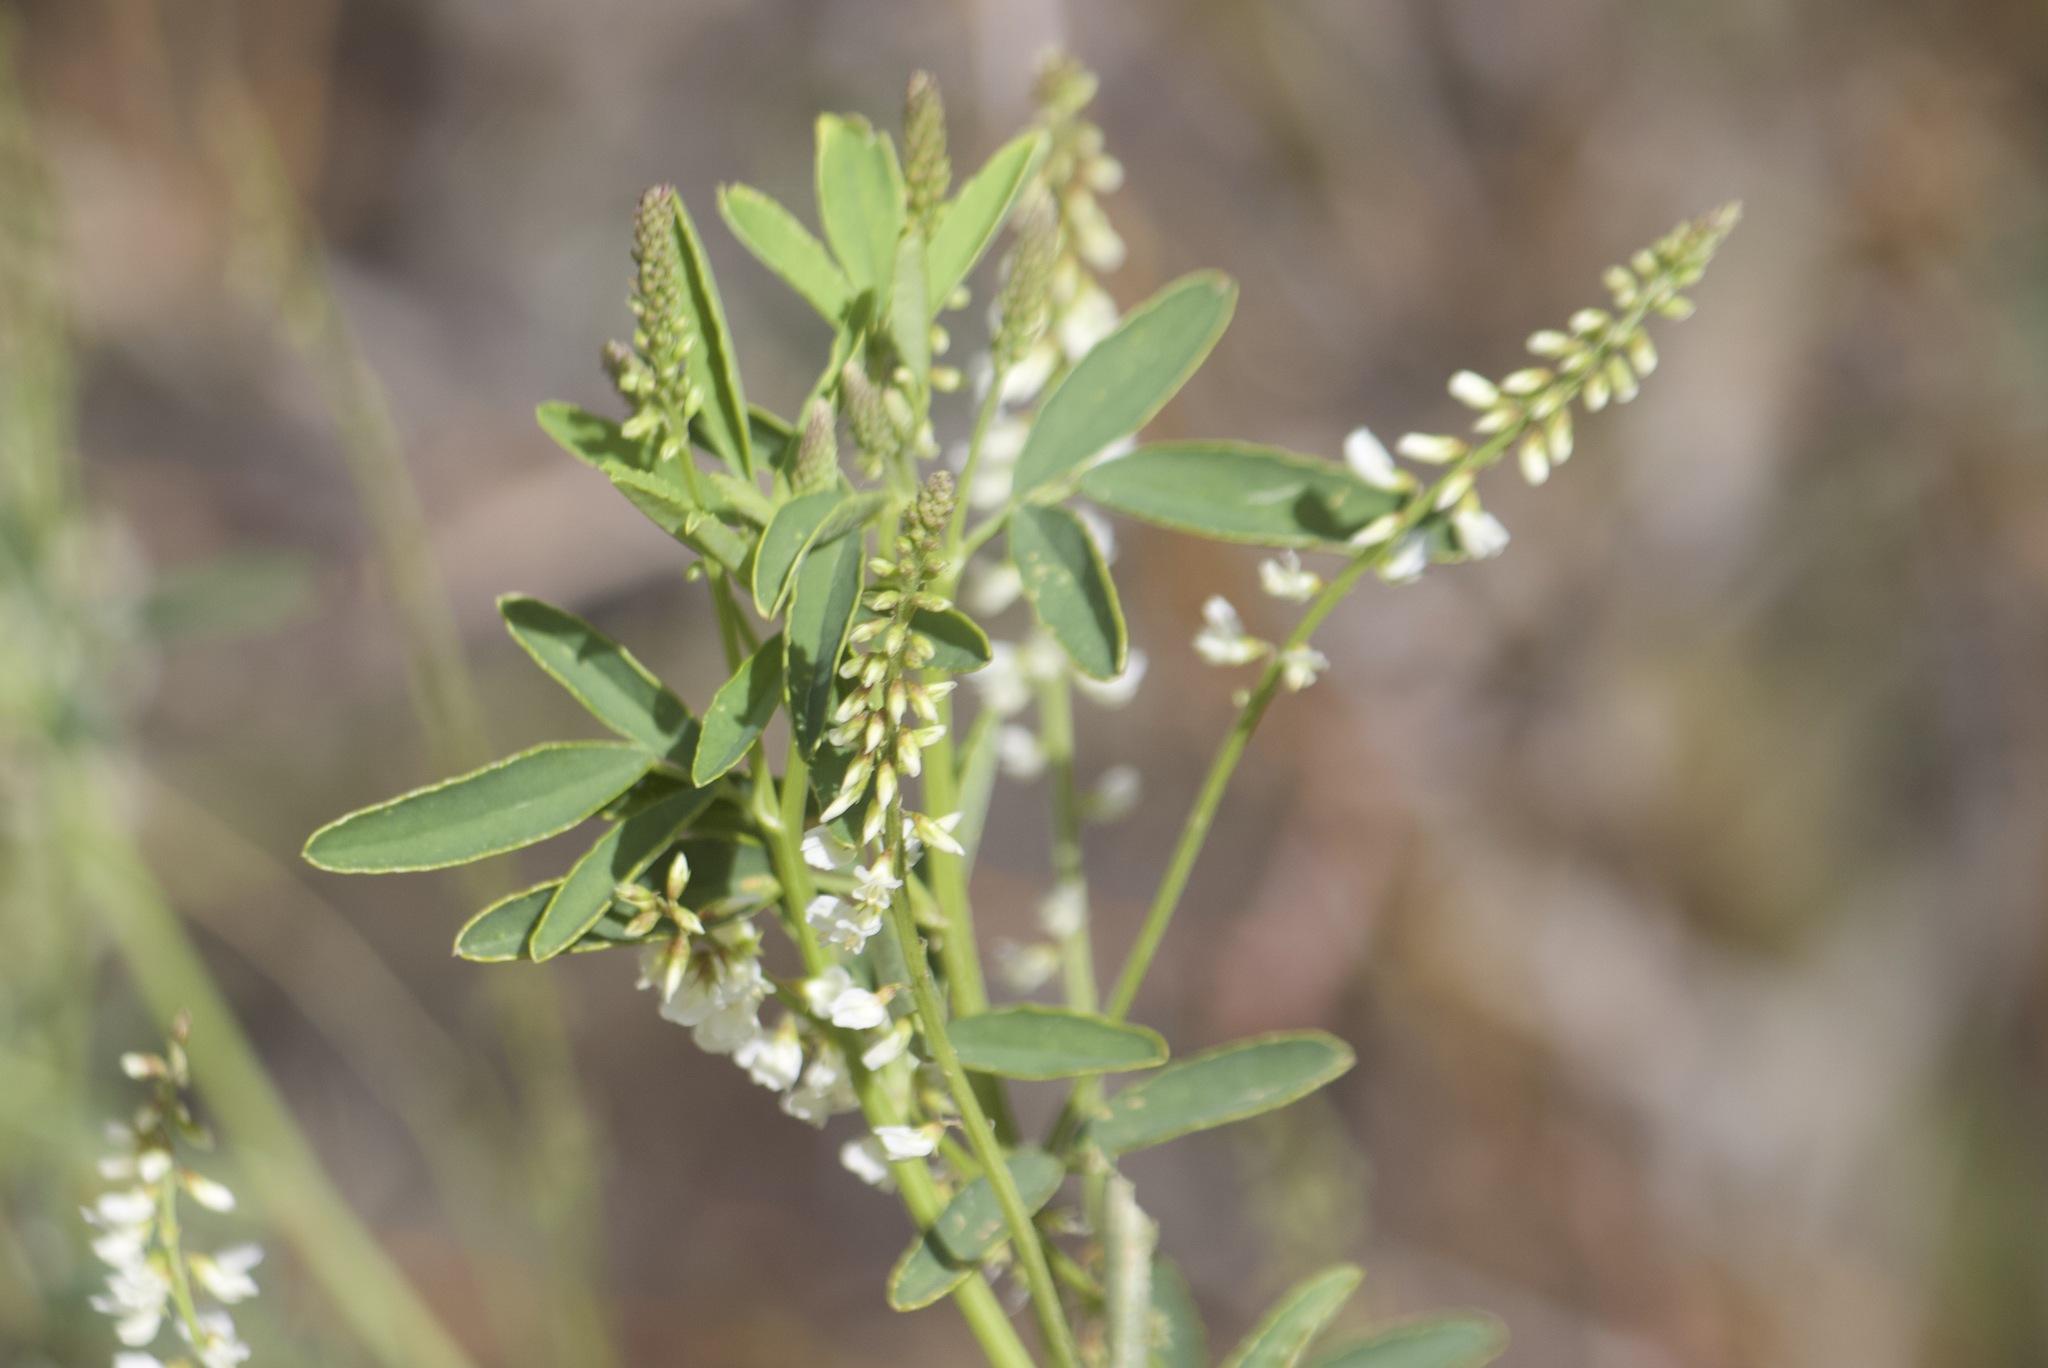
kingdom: Plantae
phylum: Tracheophyta
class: Magnoliopsida
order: Fabales
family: Fabaceae
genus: Melilotus
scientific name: Melilotus albus
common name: White melilot
